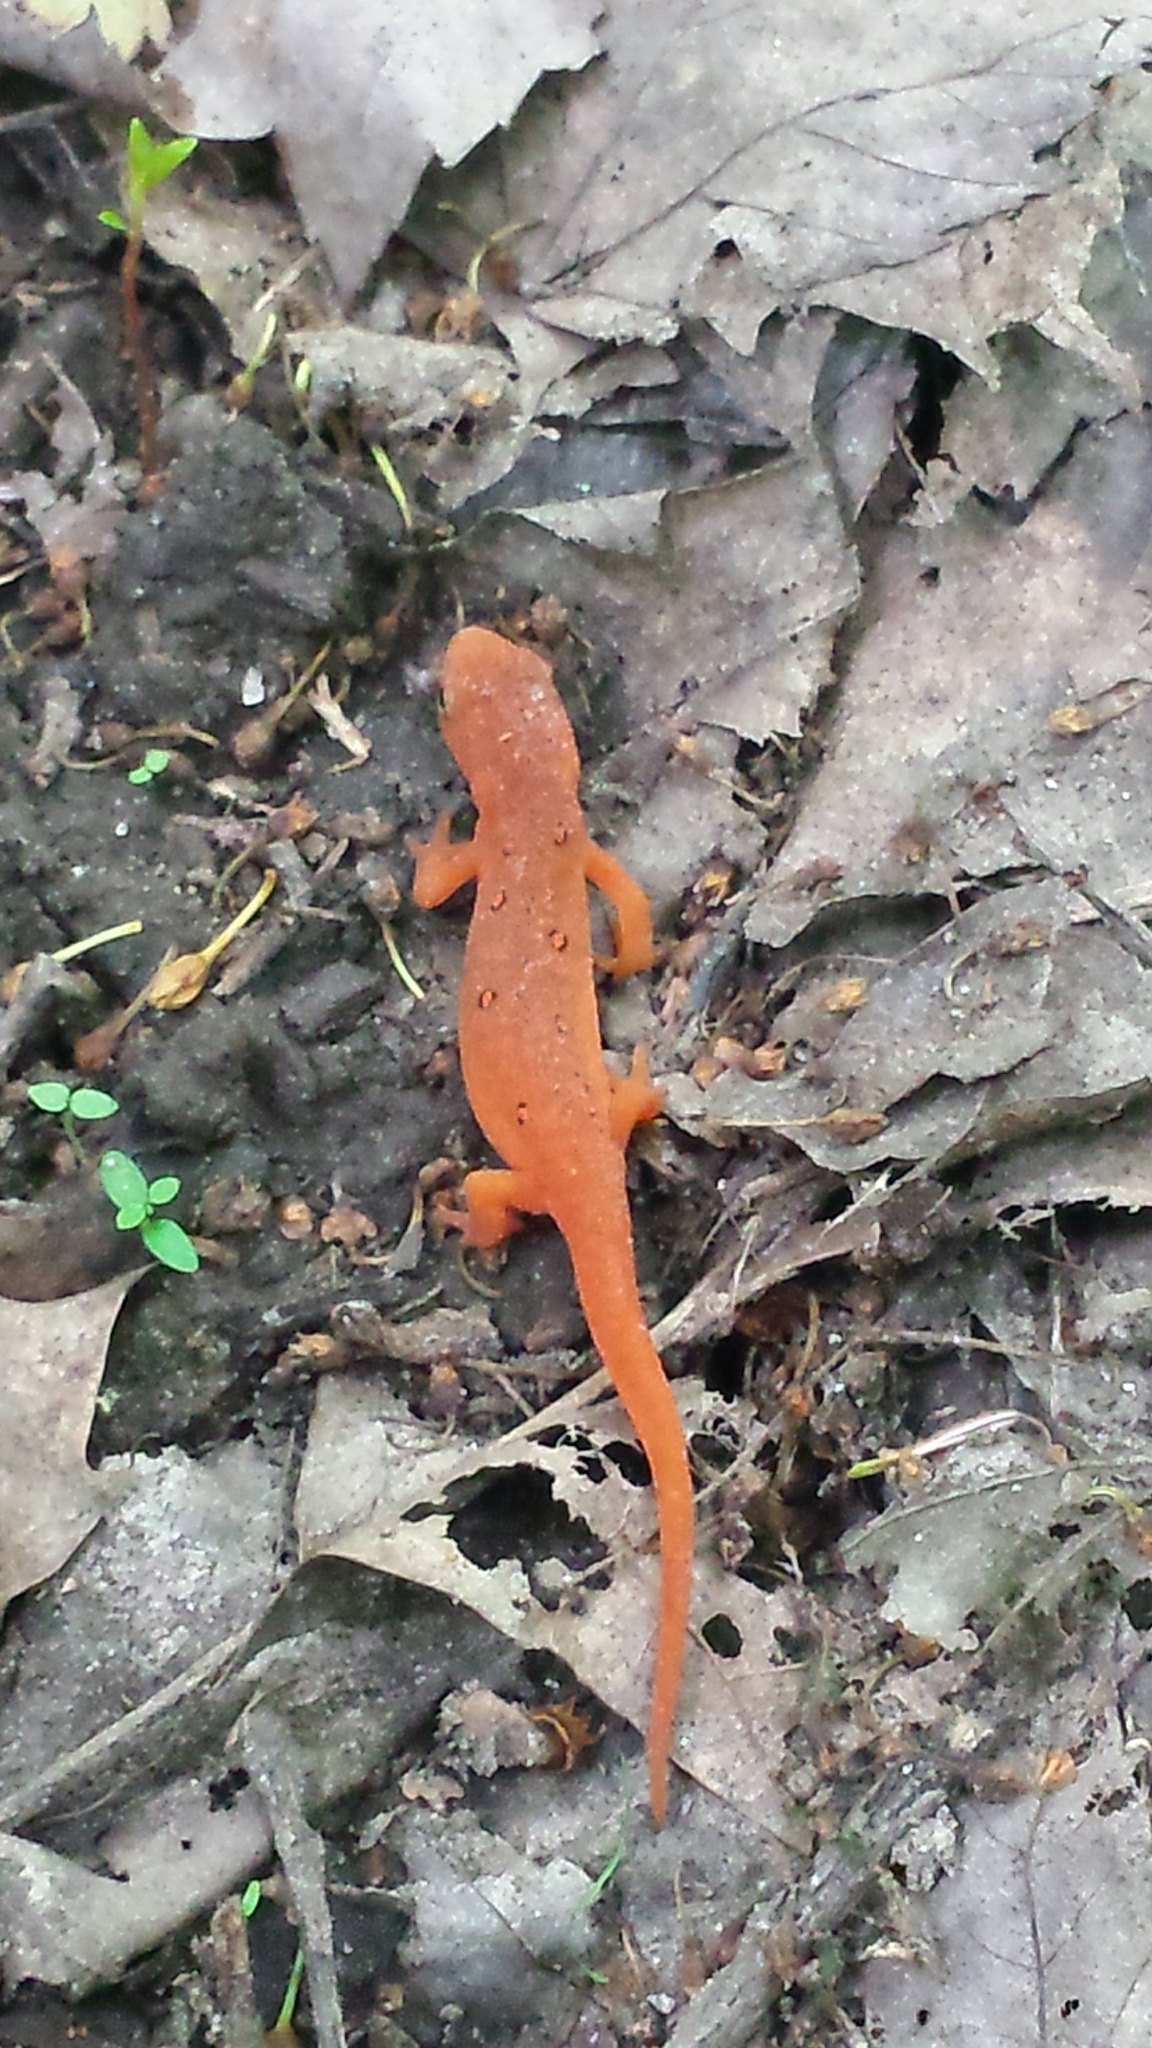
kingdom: Animalia
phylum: Chordata
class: Amphibia
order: Caudata
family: Salamandridae
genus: Notophthalmus
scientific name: Notophthalmus viridescens
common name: Eastern newt
